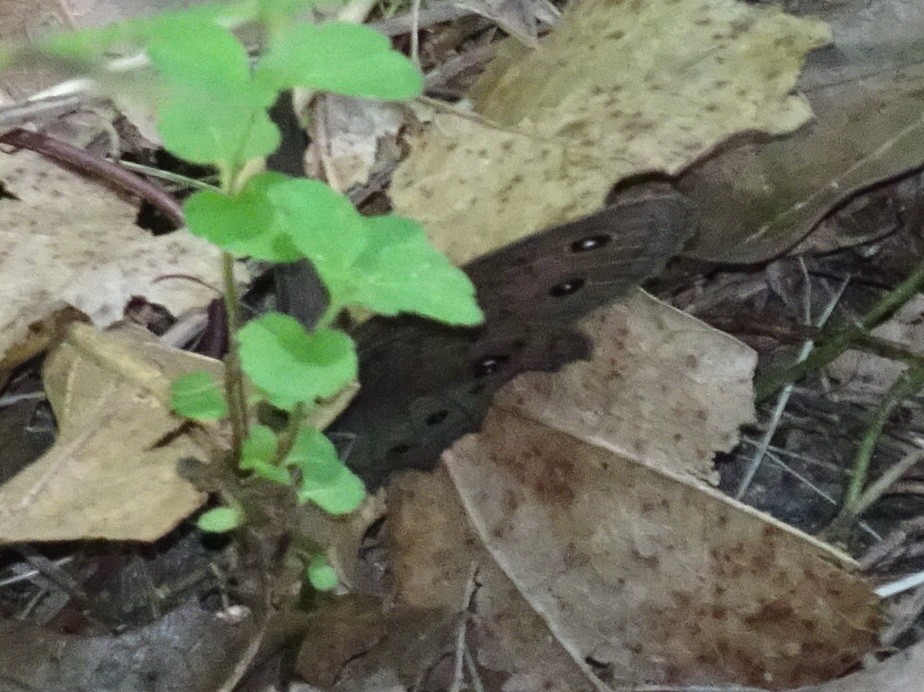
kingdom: Animalia
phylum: Arthropoda
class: Insecta
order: Lepidoptera
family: Nymphalidae
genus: Cercyonis
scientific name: Cercyonis pegala
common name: Common wood-nymph
